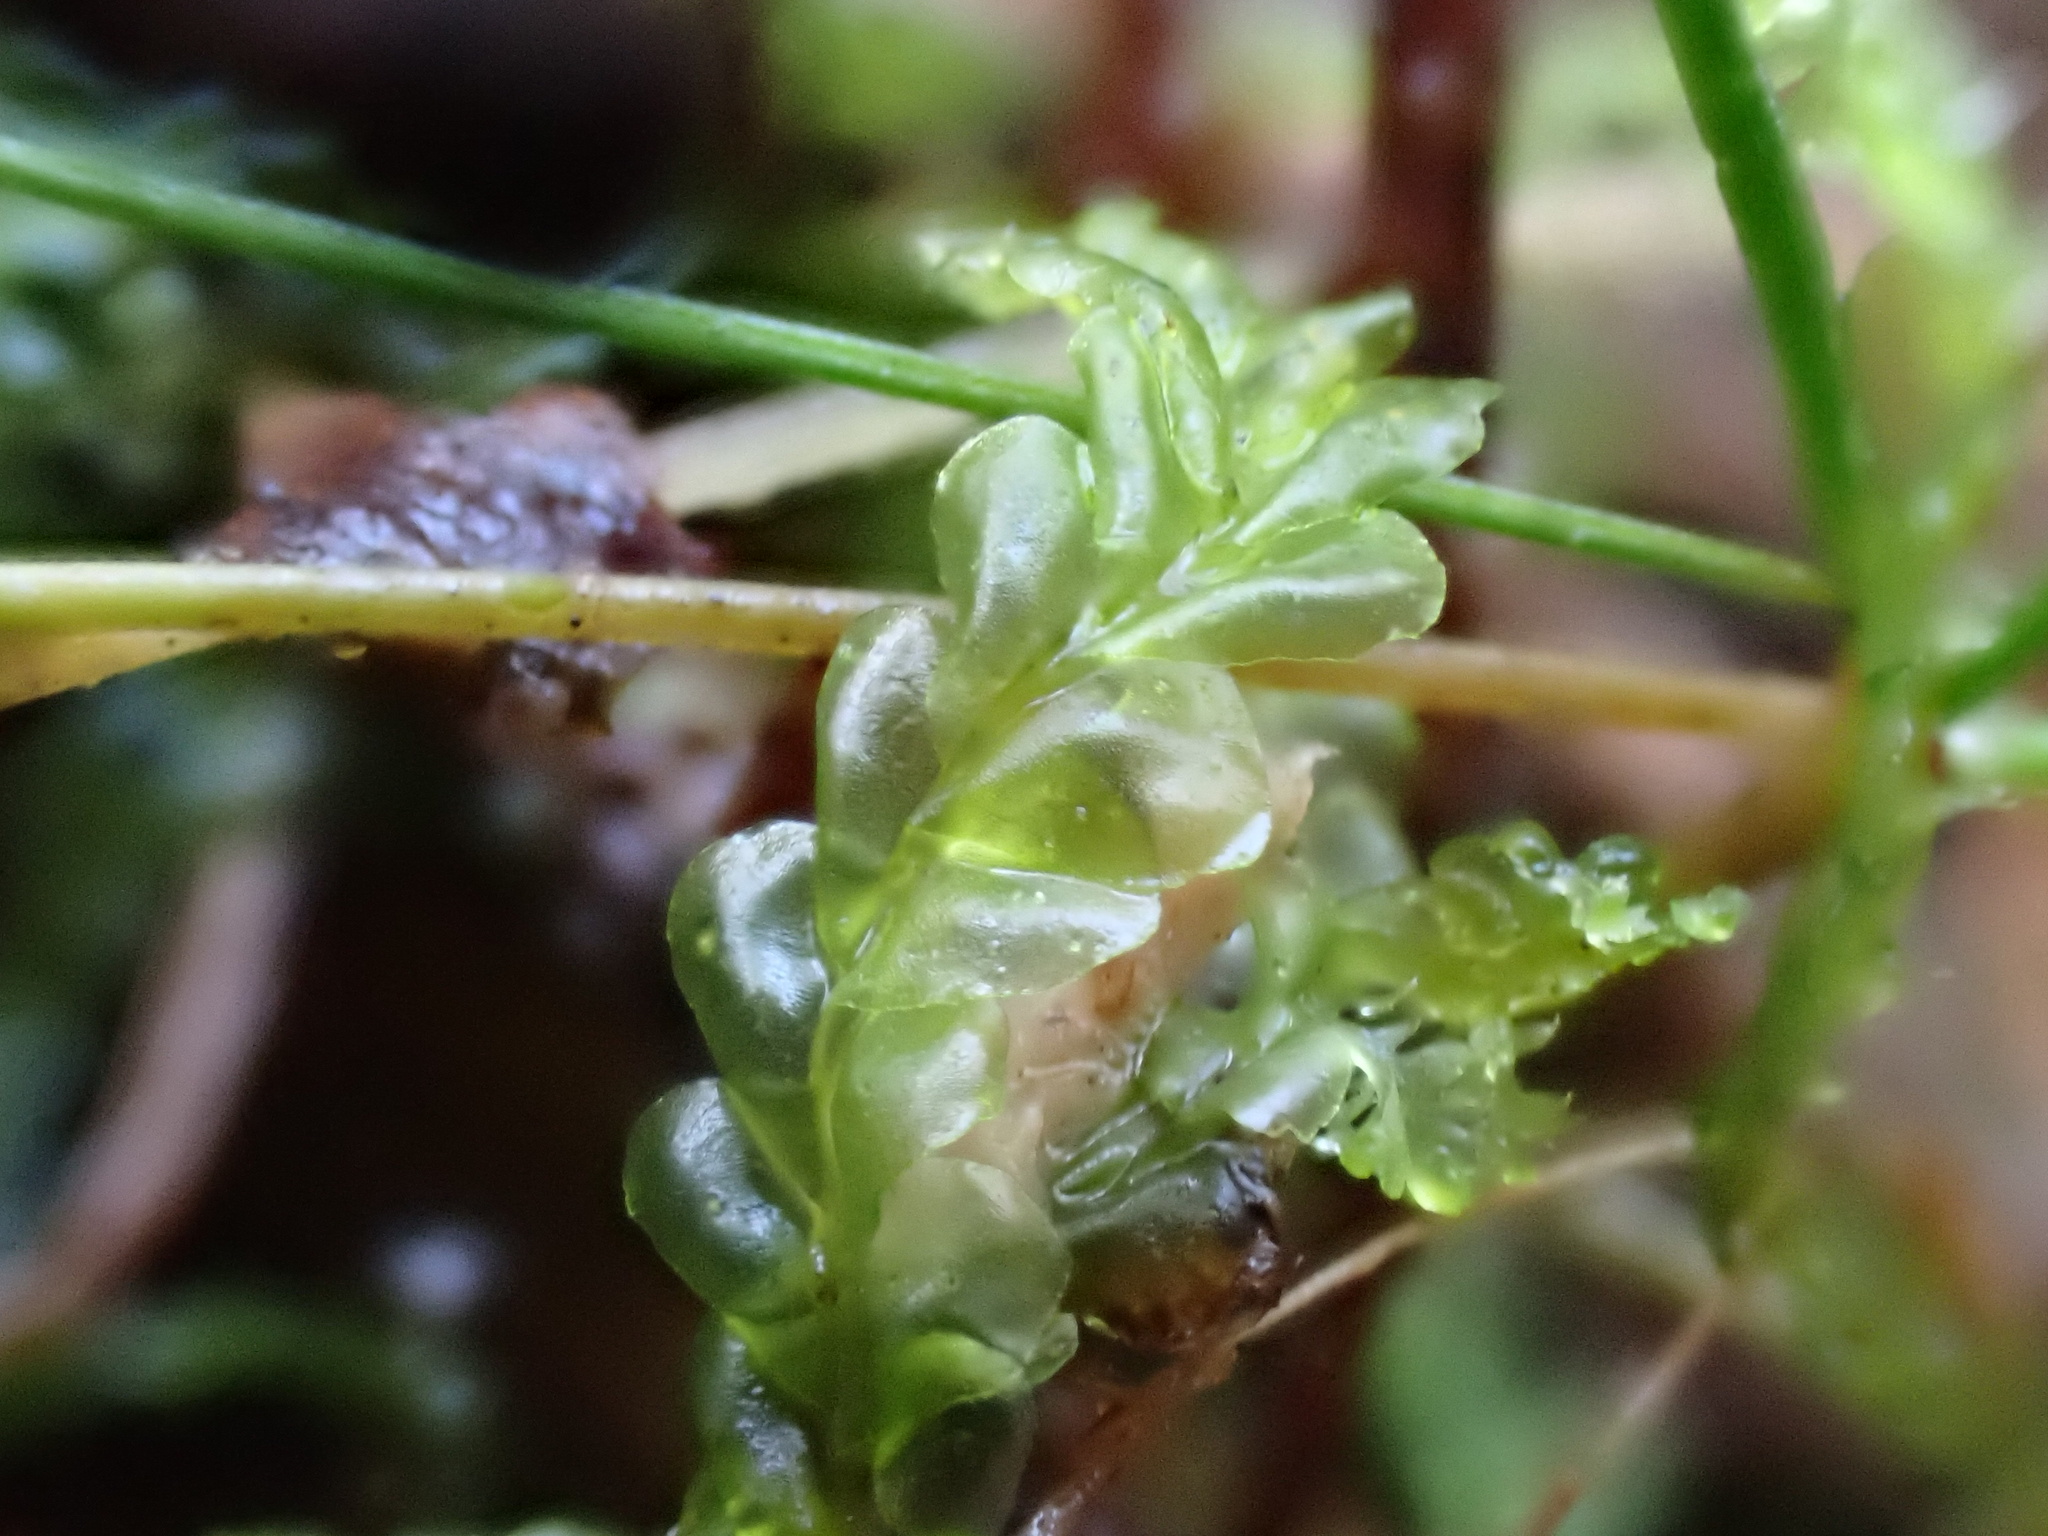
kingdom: Plantae
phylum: Marchantiophyta
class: Jungermanniopsida
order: Jungermanniales
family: Lophocoleaceae
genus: Lophocolea
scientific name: Lophocolea semiteres
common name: Southern crestwort
